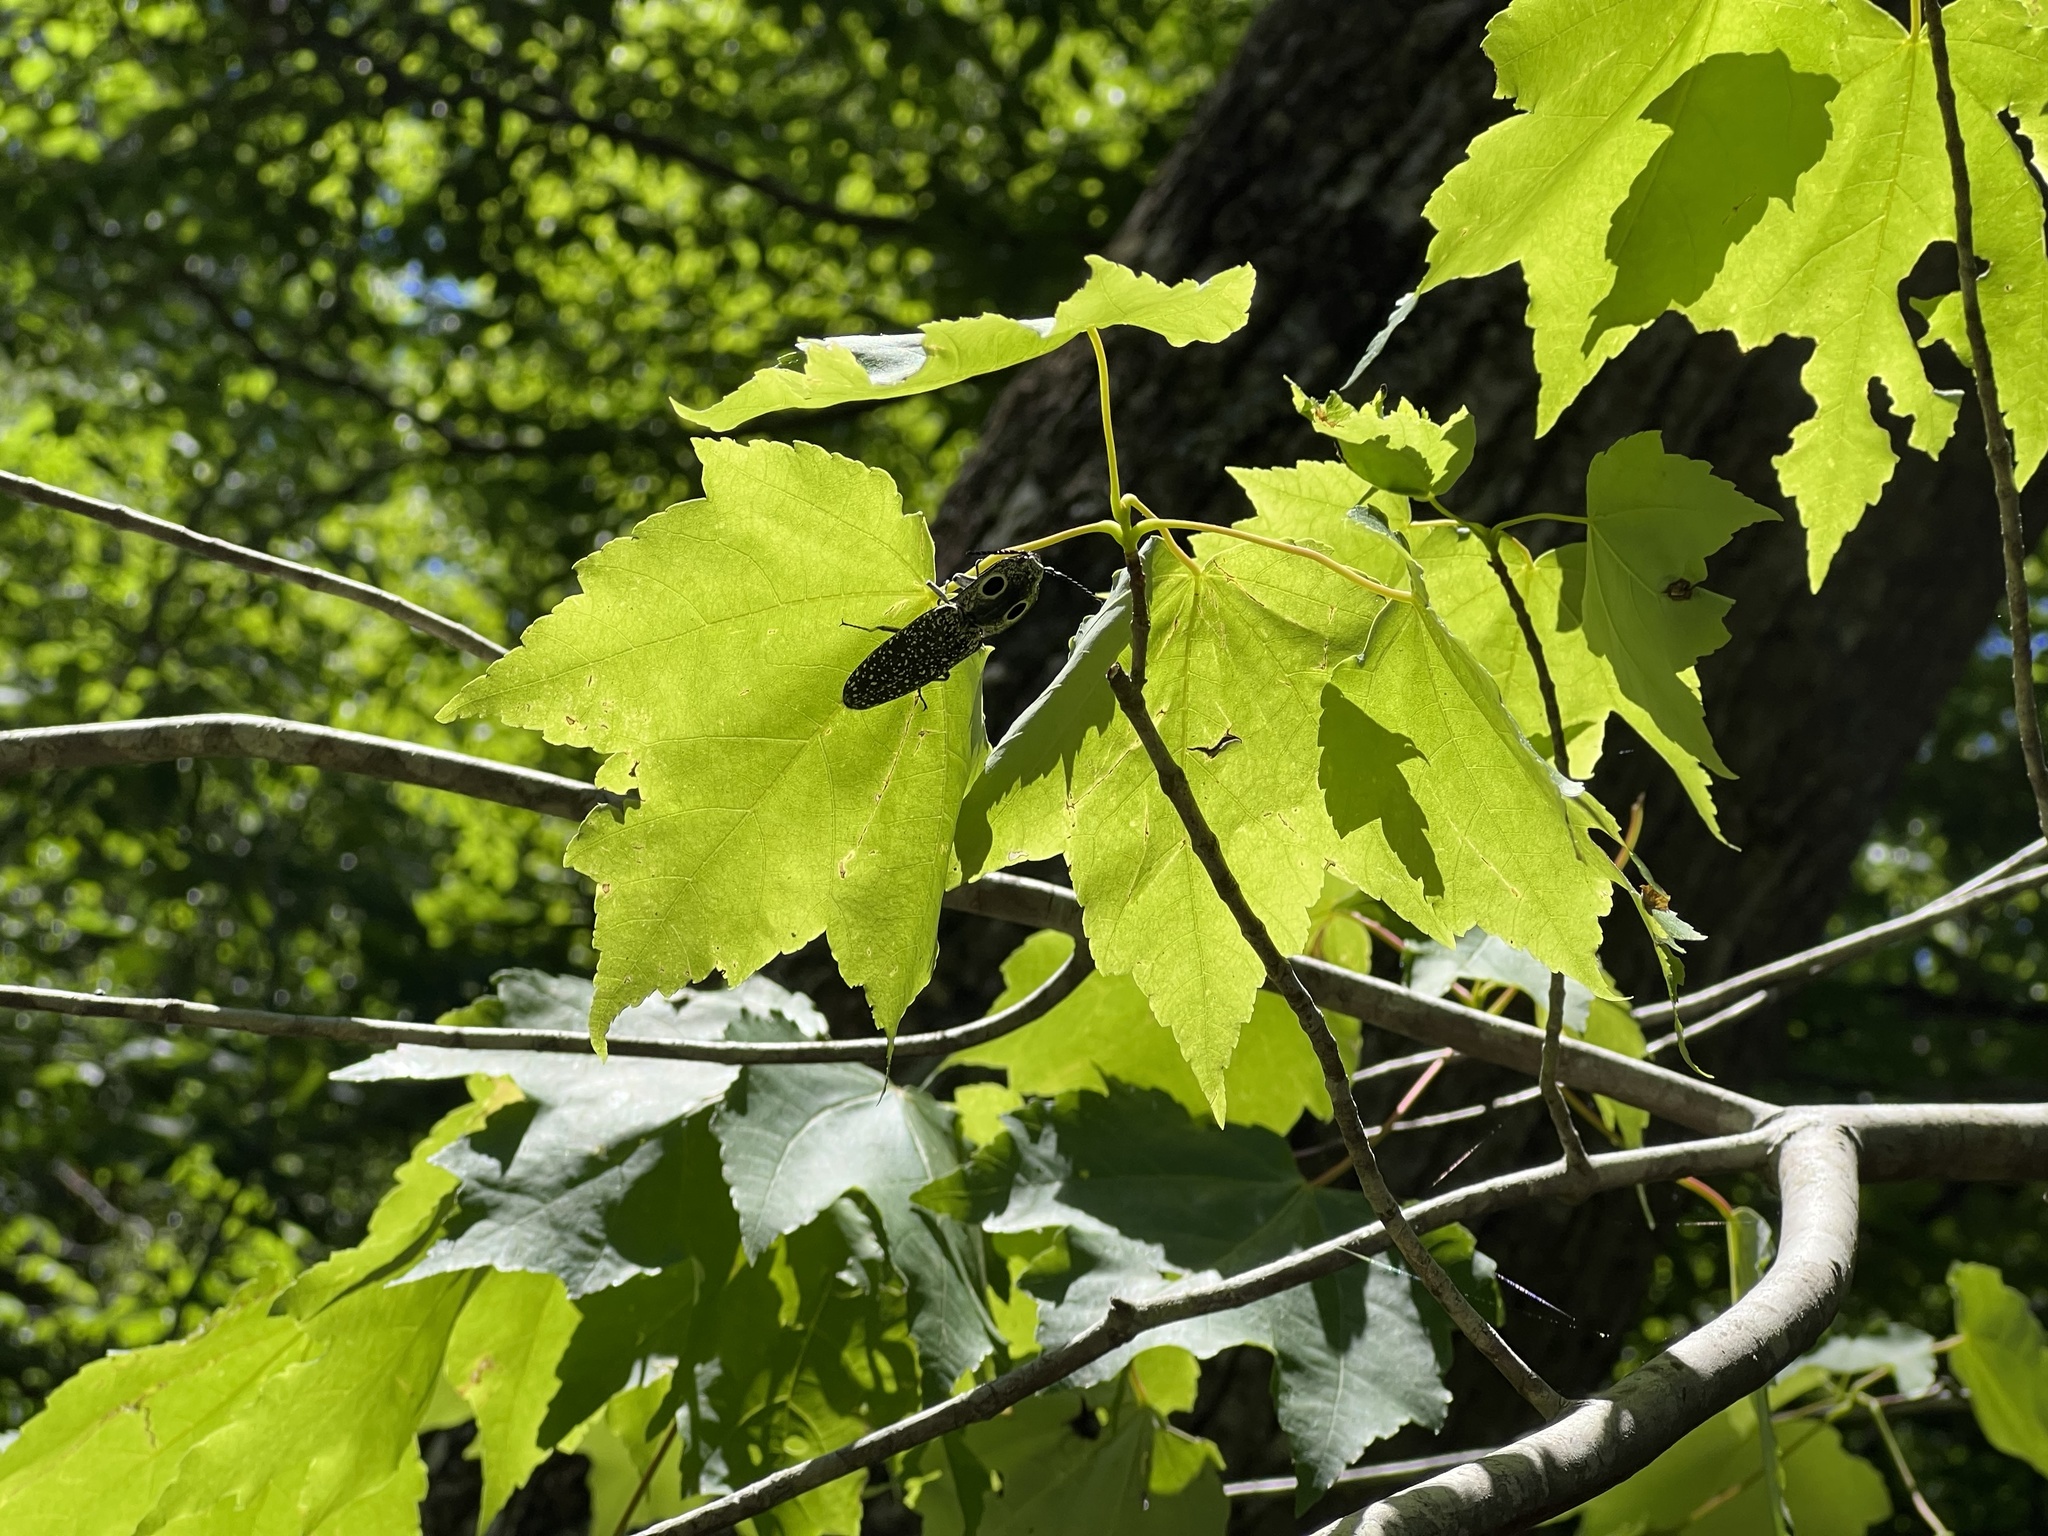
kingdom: Animalia
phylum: Arthropoda
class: Insecta
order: Coleoptera
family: Elateridae
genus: Alaus
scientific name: Alaus oculatus
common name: Eastern eyed click beetle
